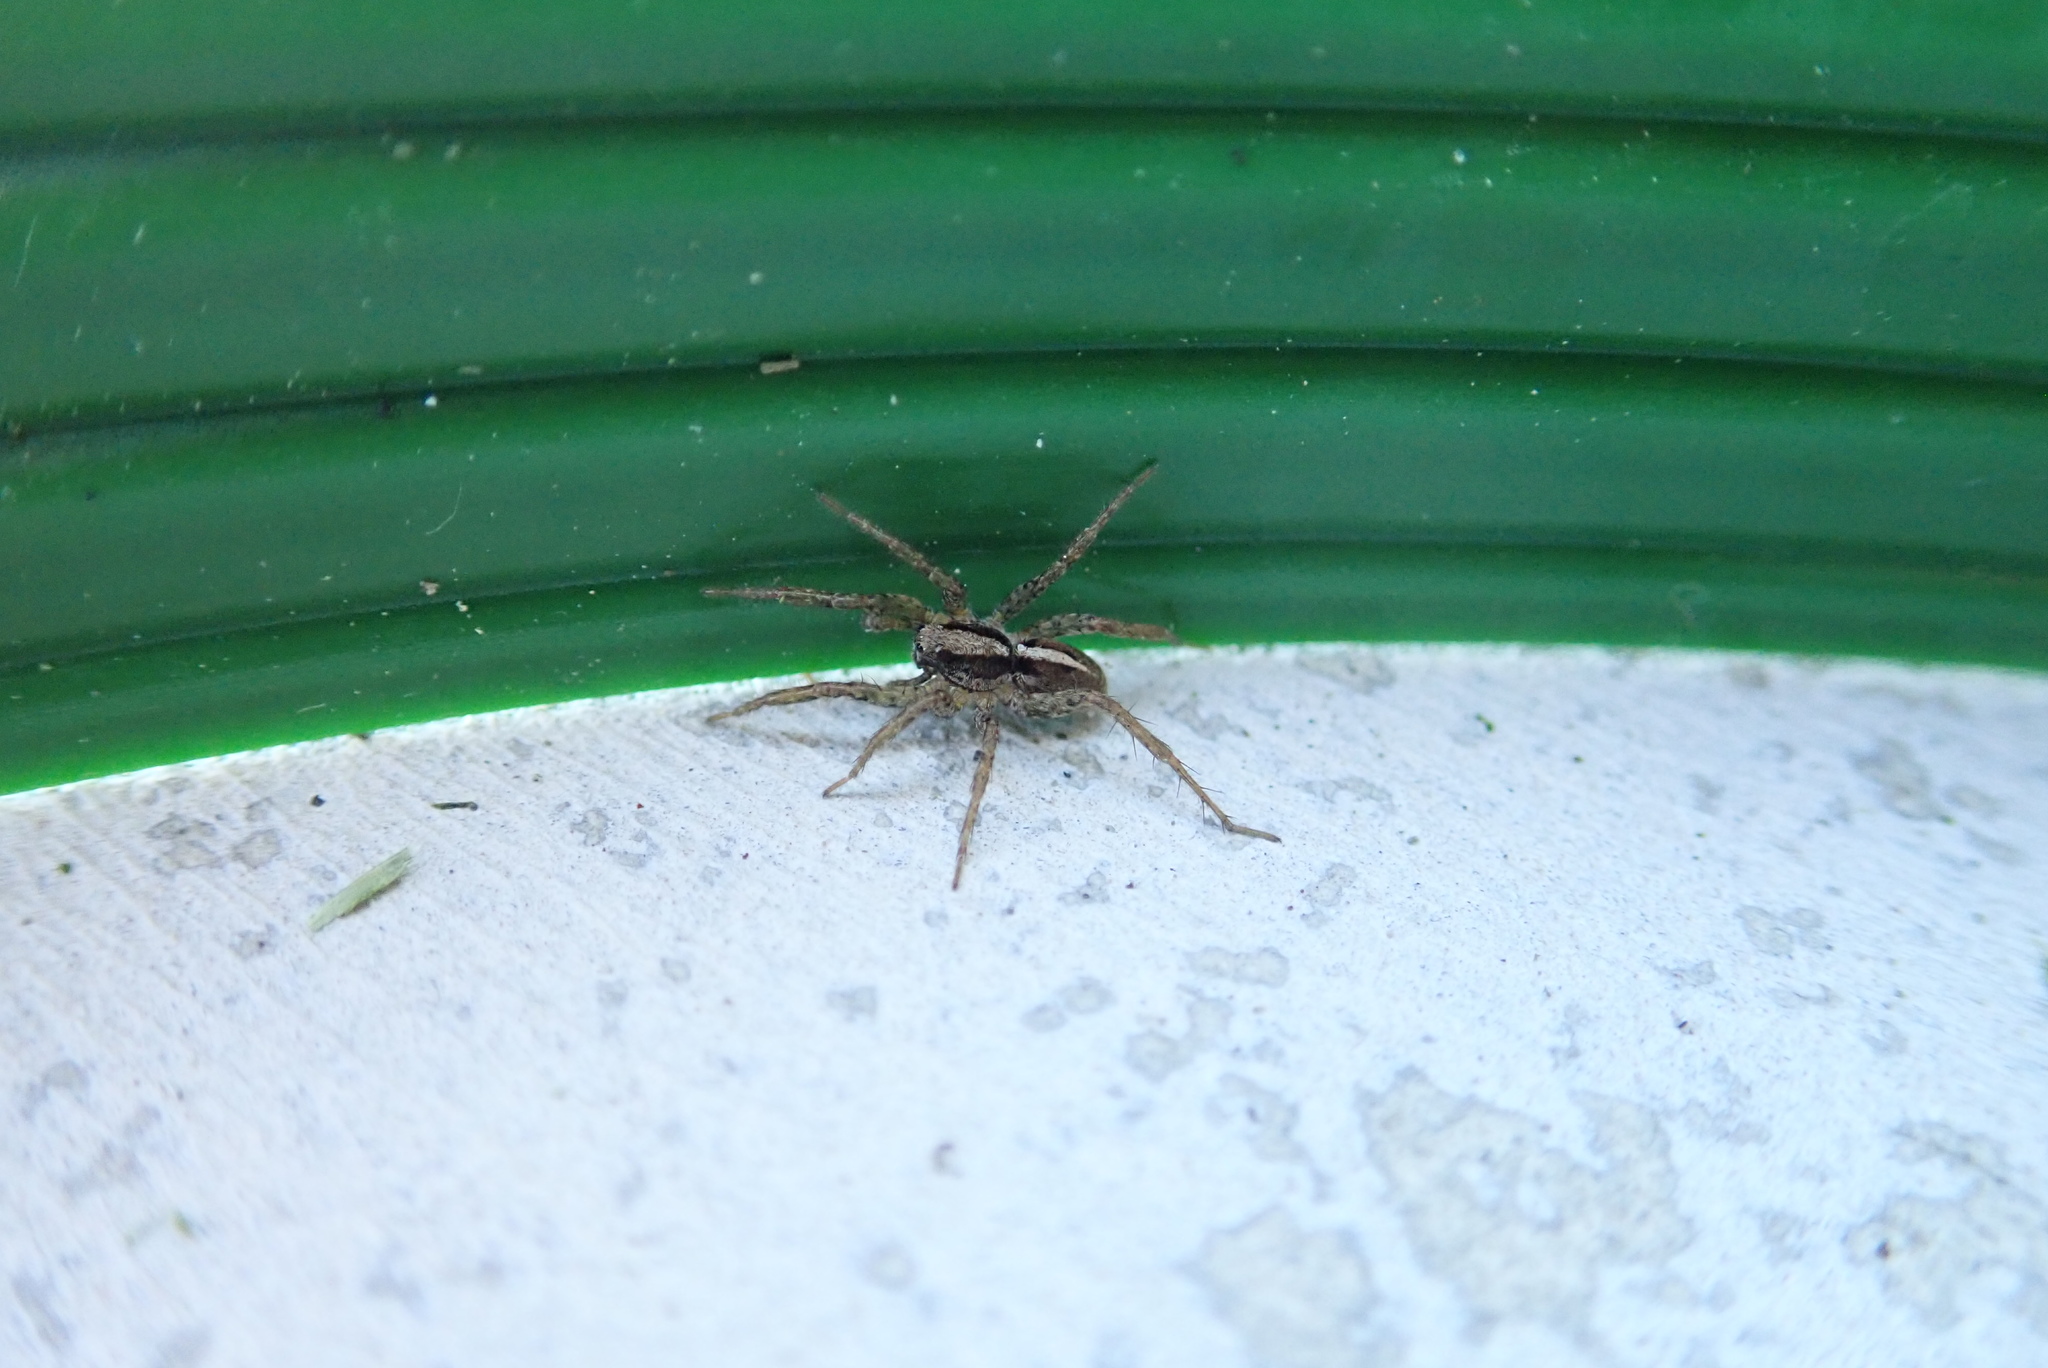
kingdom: Animalia
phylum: Arthropoda
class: Arachnida
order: Araneae
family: Lycosidae
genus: Anoteropsis
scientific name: Anoteropsis hilaris
